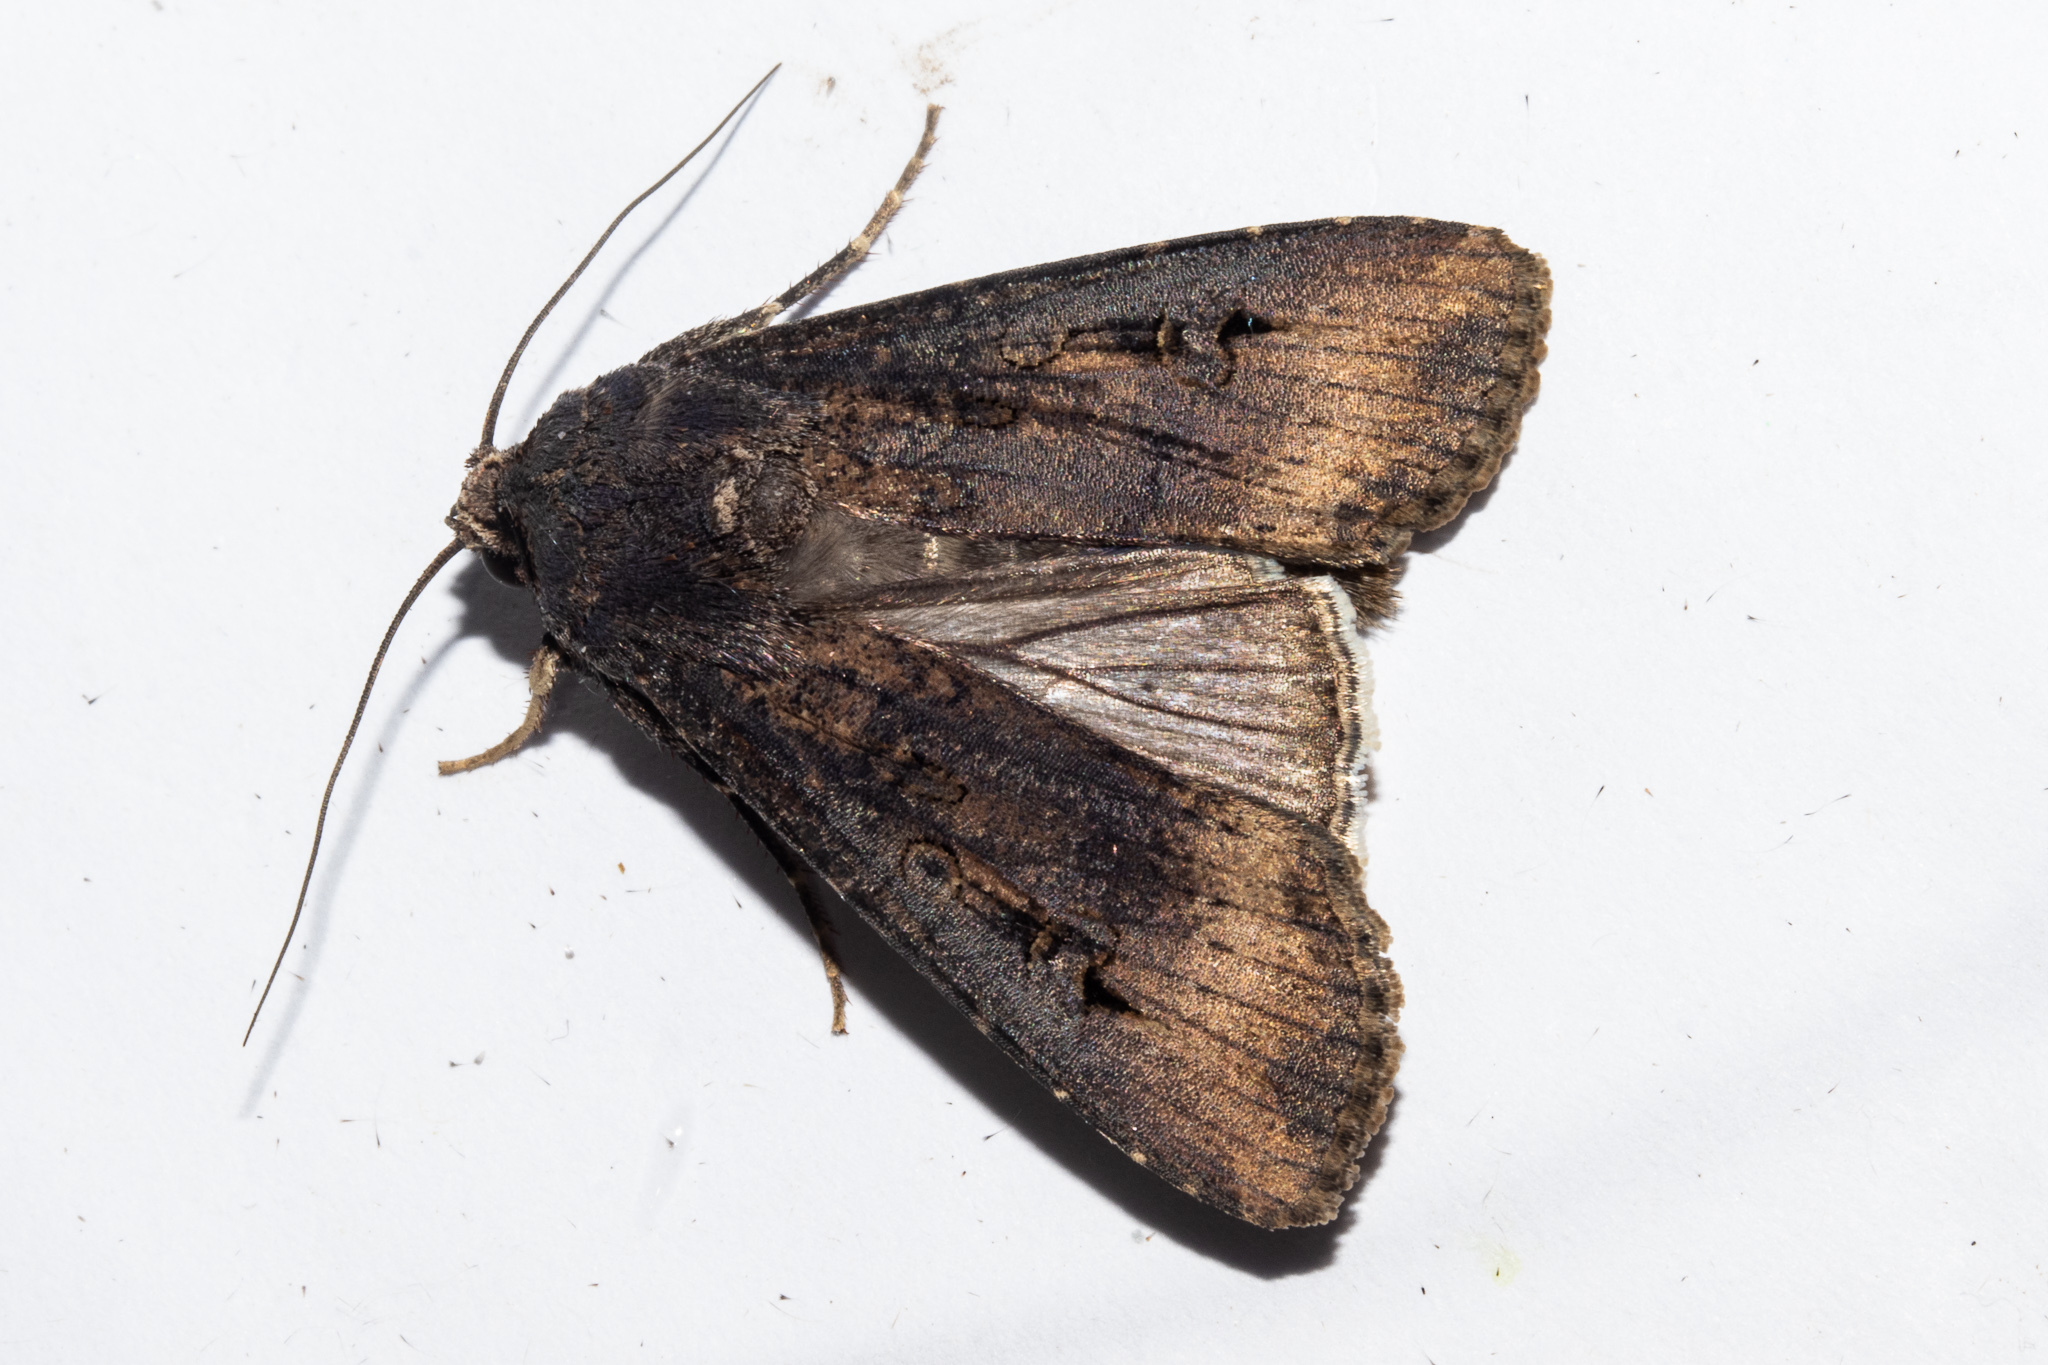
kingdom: Animalia
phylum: Arthropoda
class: Insecta
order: Lepidoptera
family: Noctuidae
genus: Agrotis
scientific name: Agrotis ipsilon
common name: Dark sword-grass
